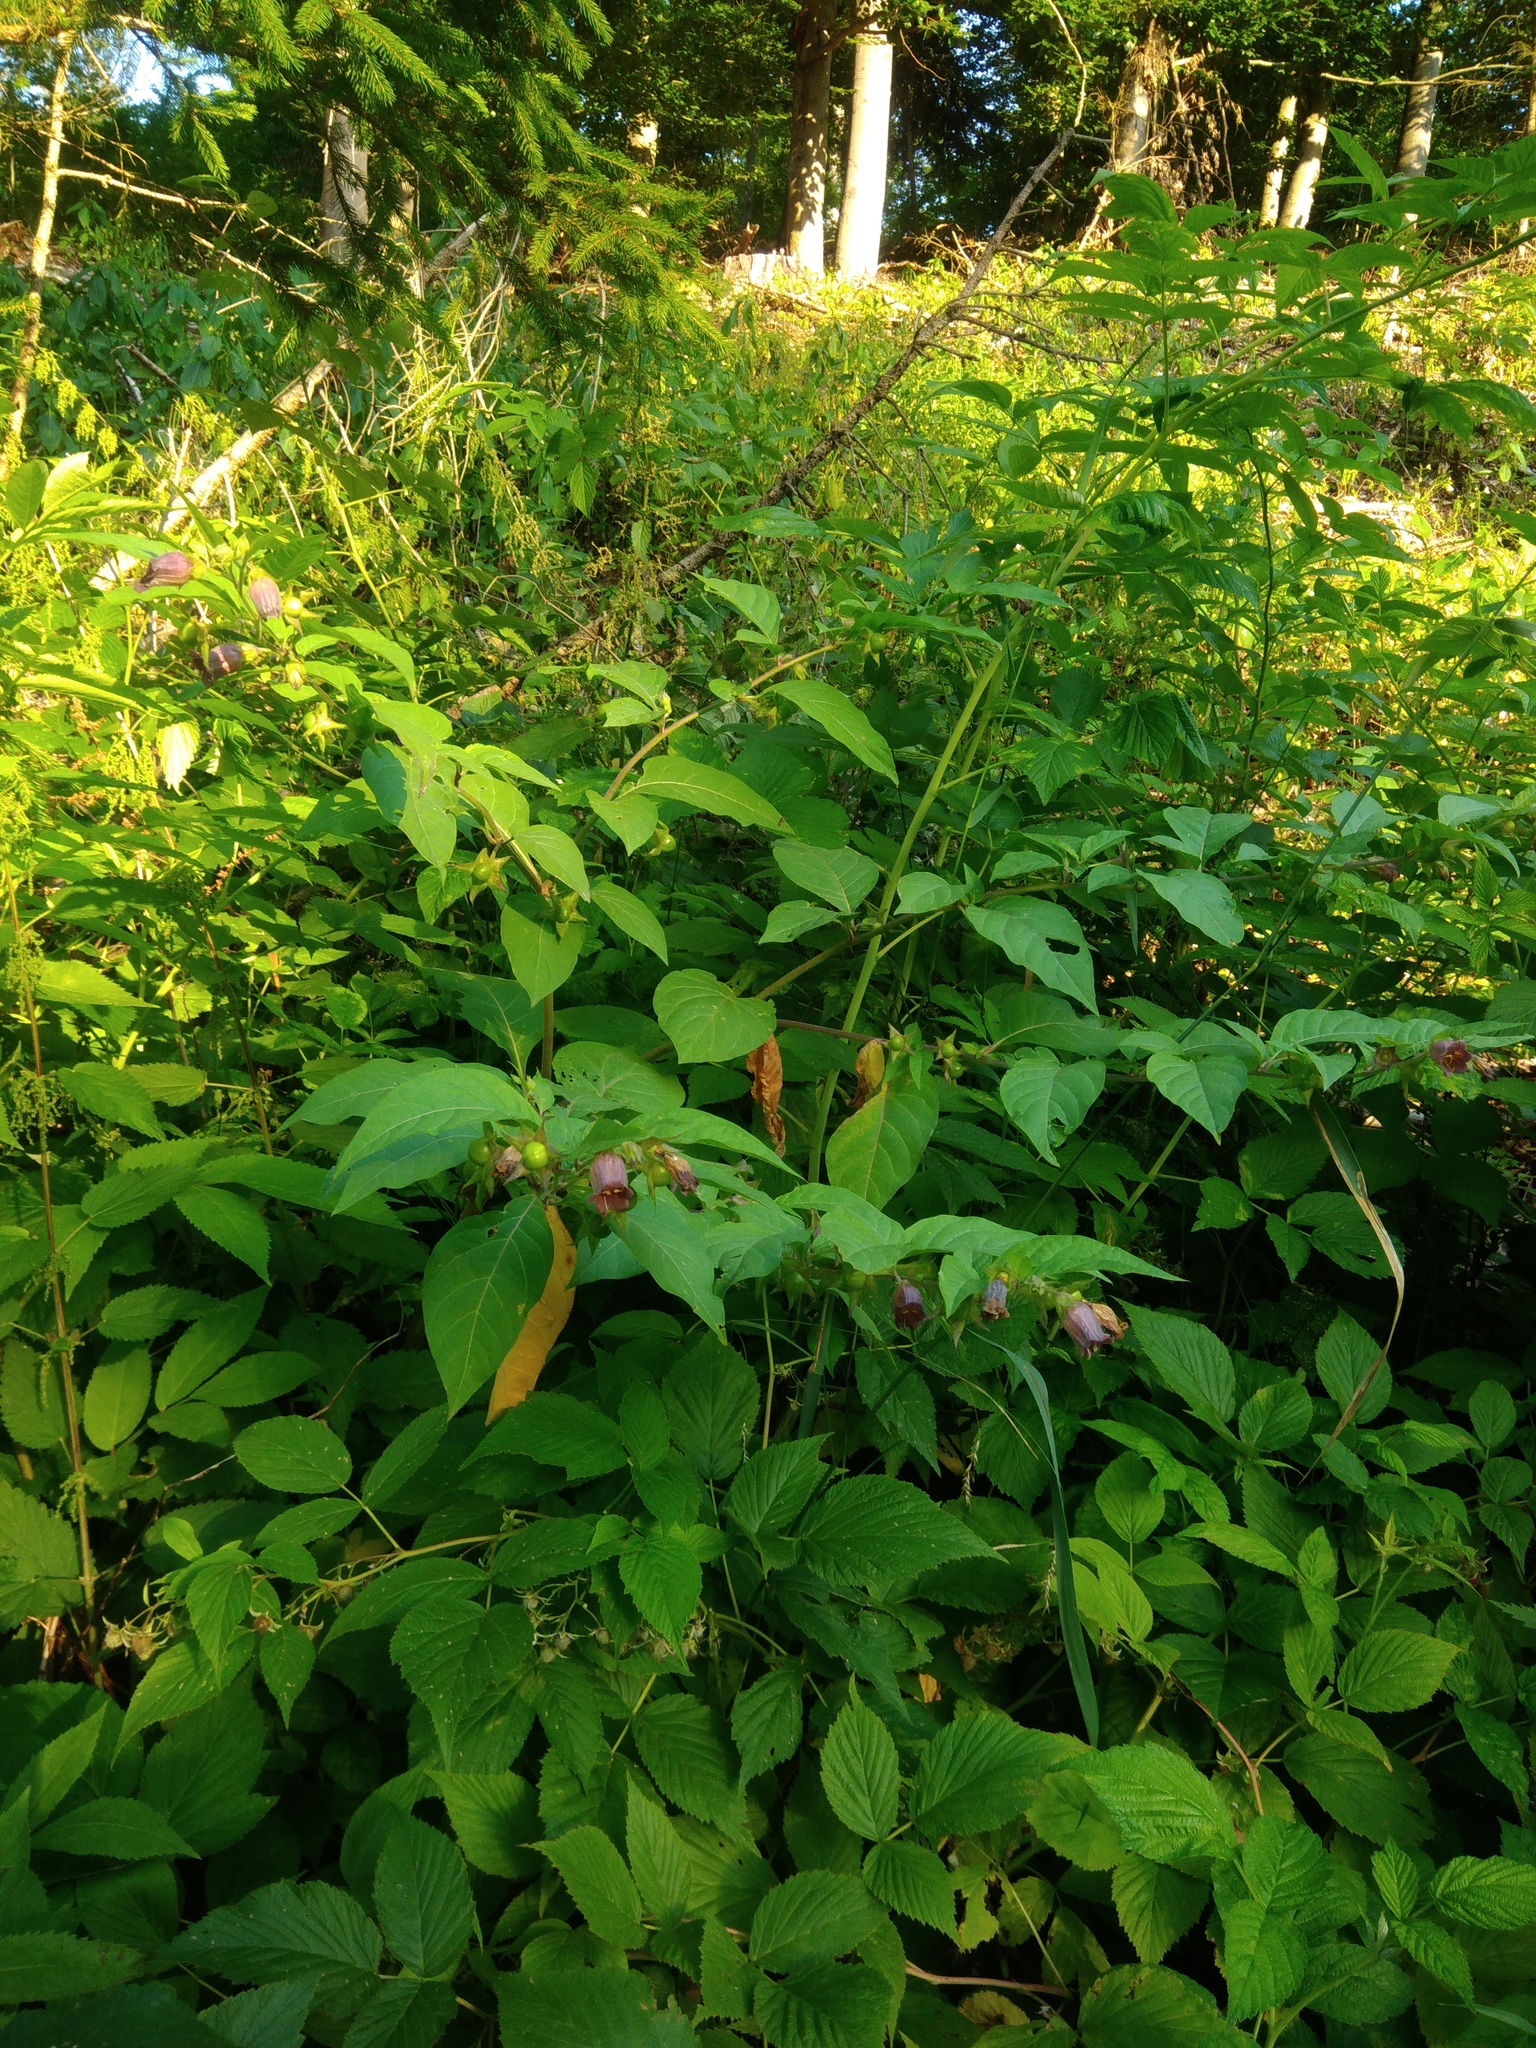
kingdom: Plantae
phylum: Tracheophyta
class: Magnoliopsida
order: Solanales
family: Solanaceae
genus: Atropa
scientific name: Atropa belladonna
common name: Deadly nightshade
